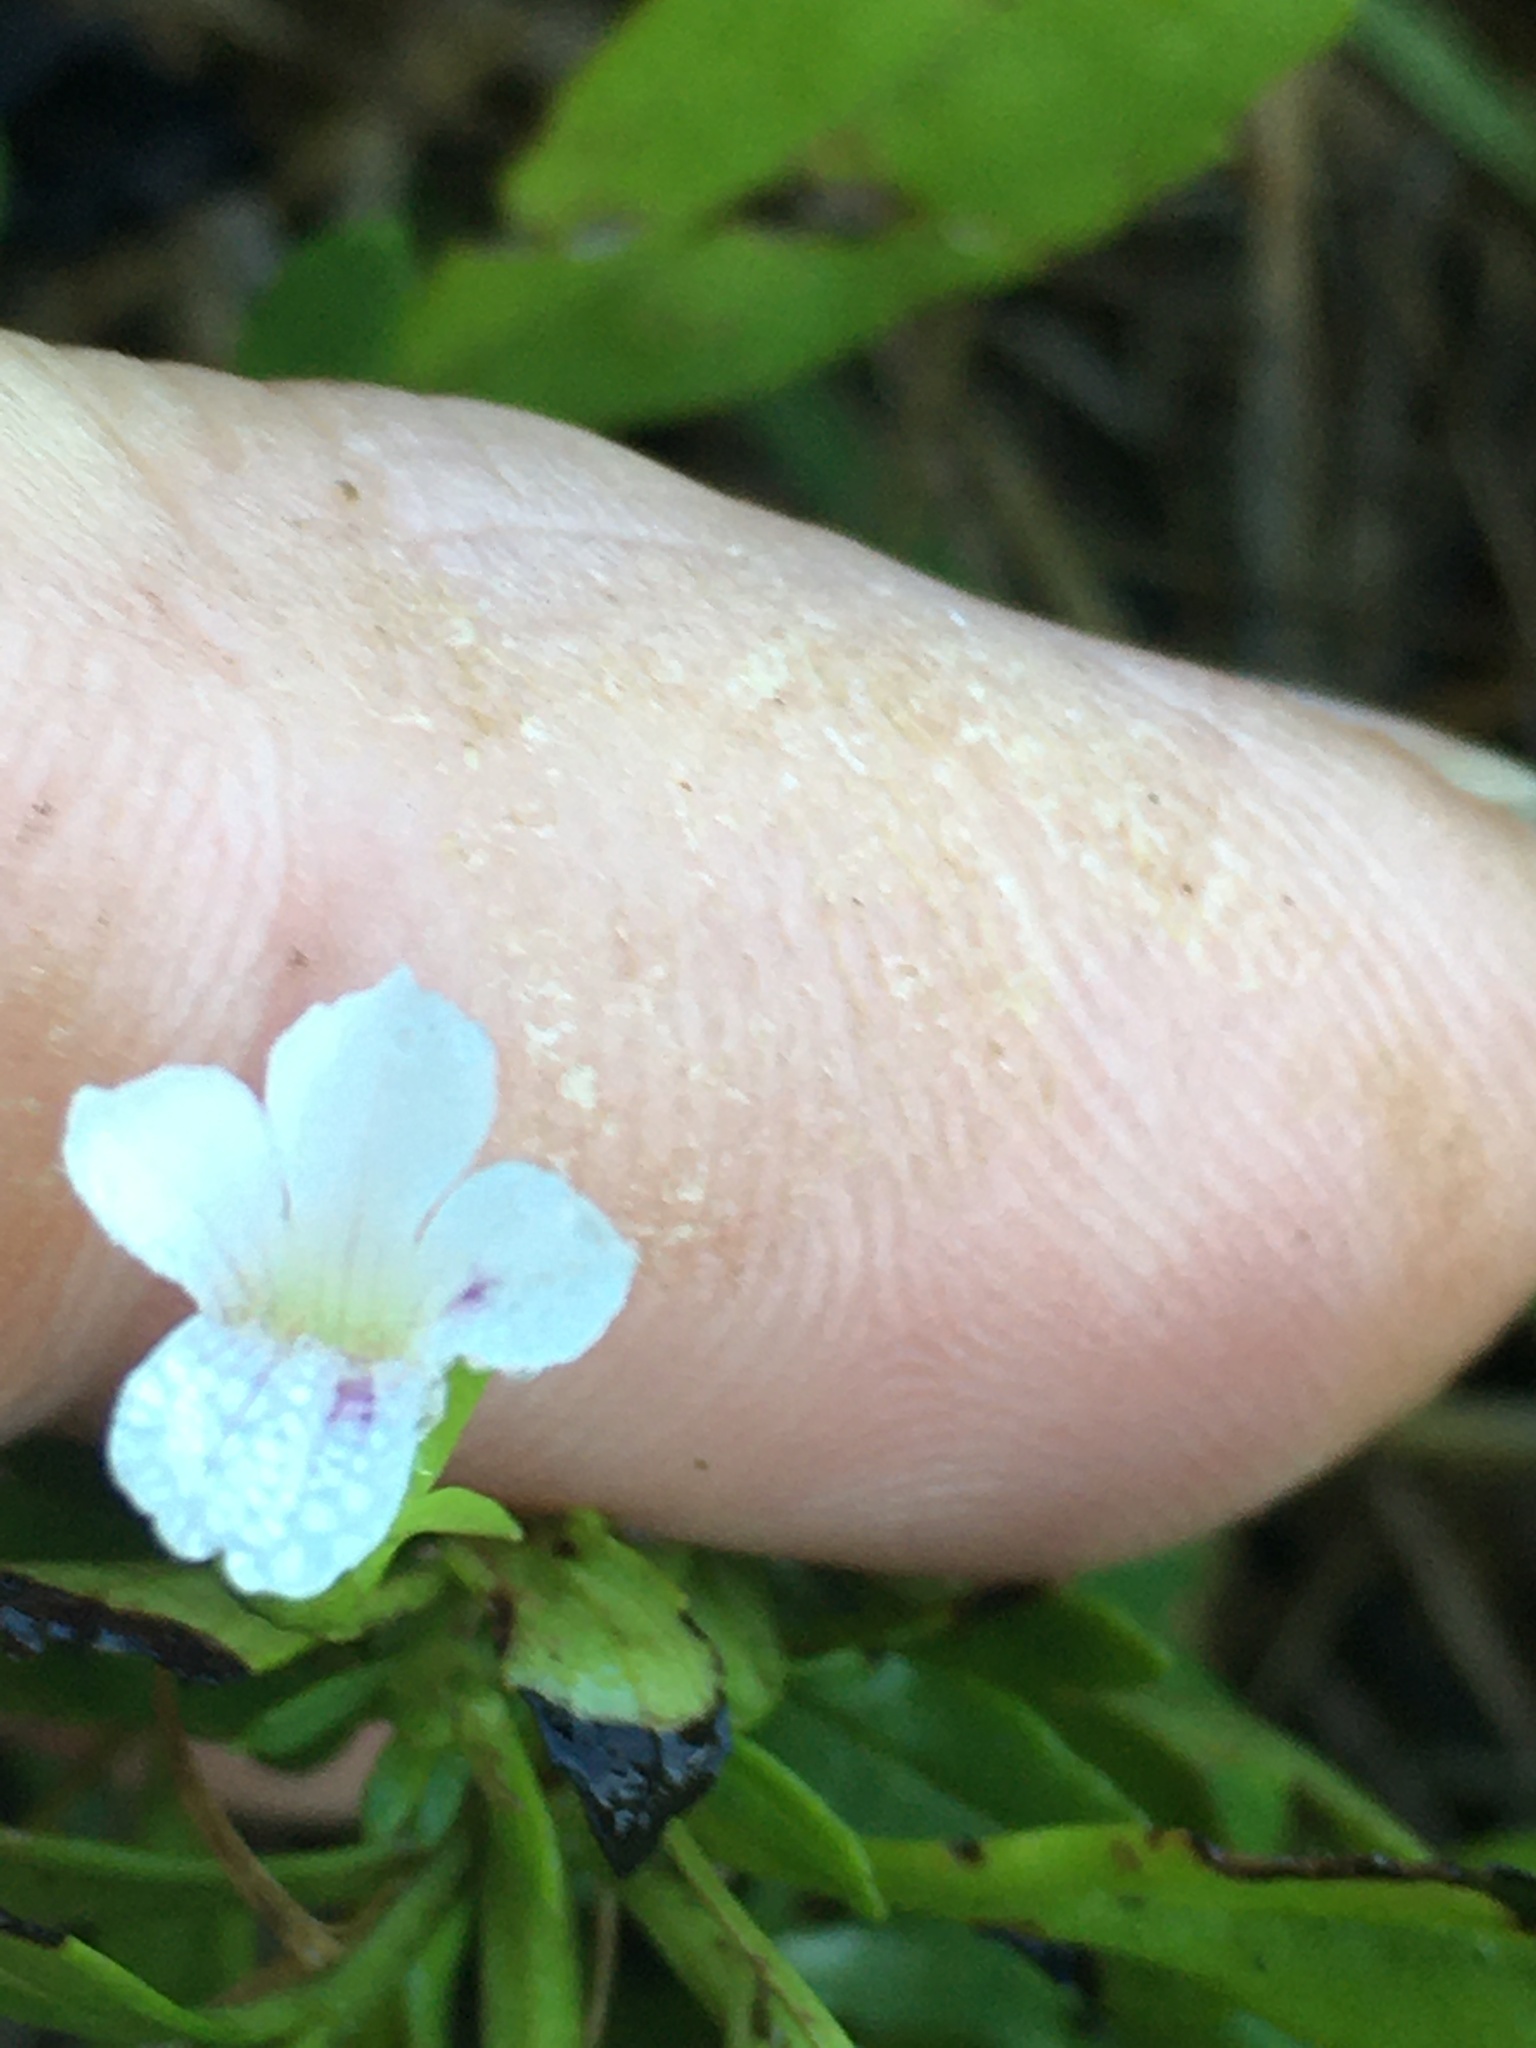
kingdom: Plantae
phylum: Tracheophyta
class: Magnoliopsida
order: Lamiales
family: Plantaginaceae
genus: Mecardonia
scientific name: Mecardonia acuminata
